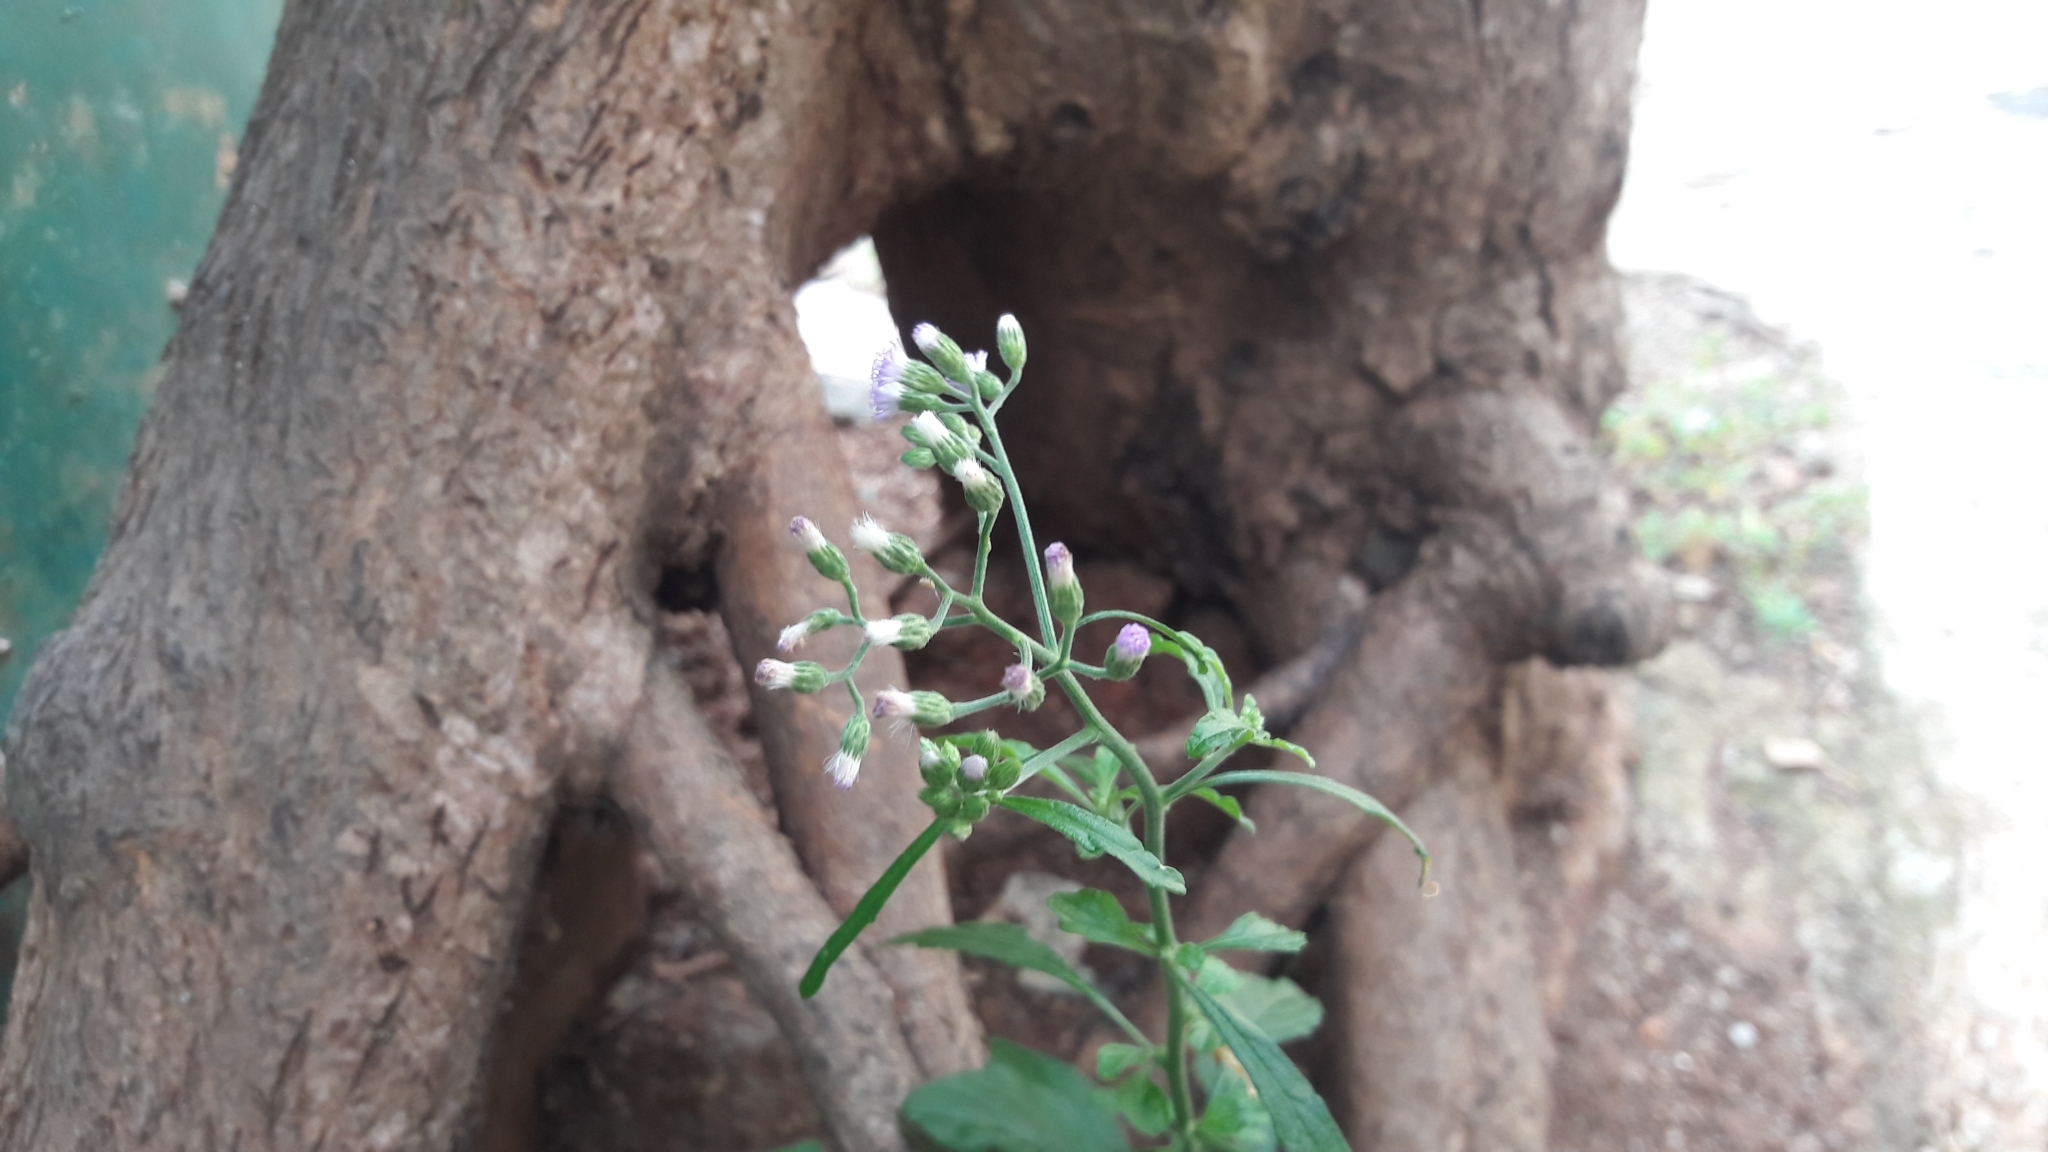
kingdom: Plantae
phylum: Tracheophyta
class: Magnoliopsida
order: Asterales
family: Asteraceae
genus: Cyanthillium
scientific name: Cyanthillium cinereum
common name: Little ironweed
